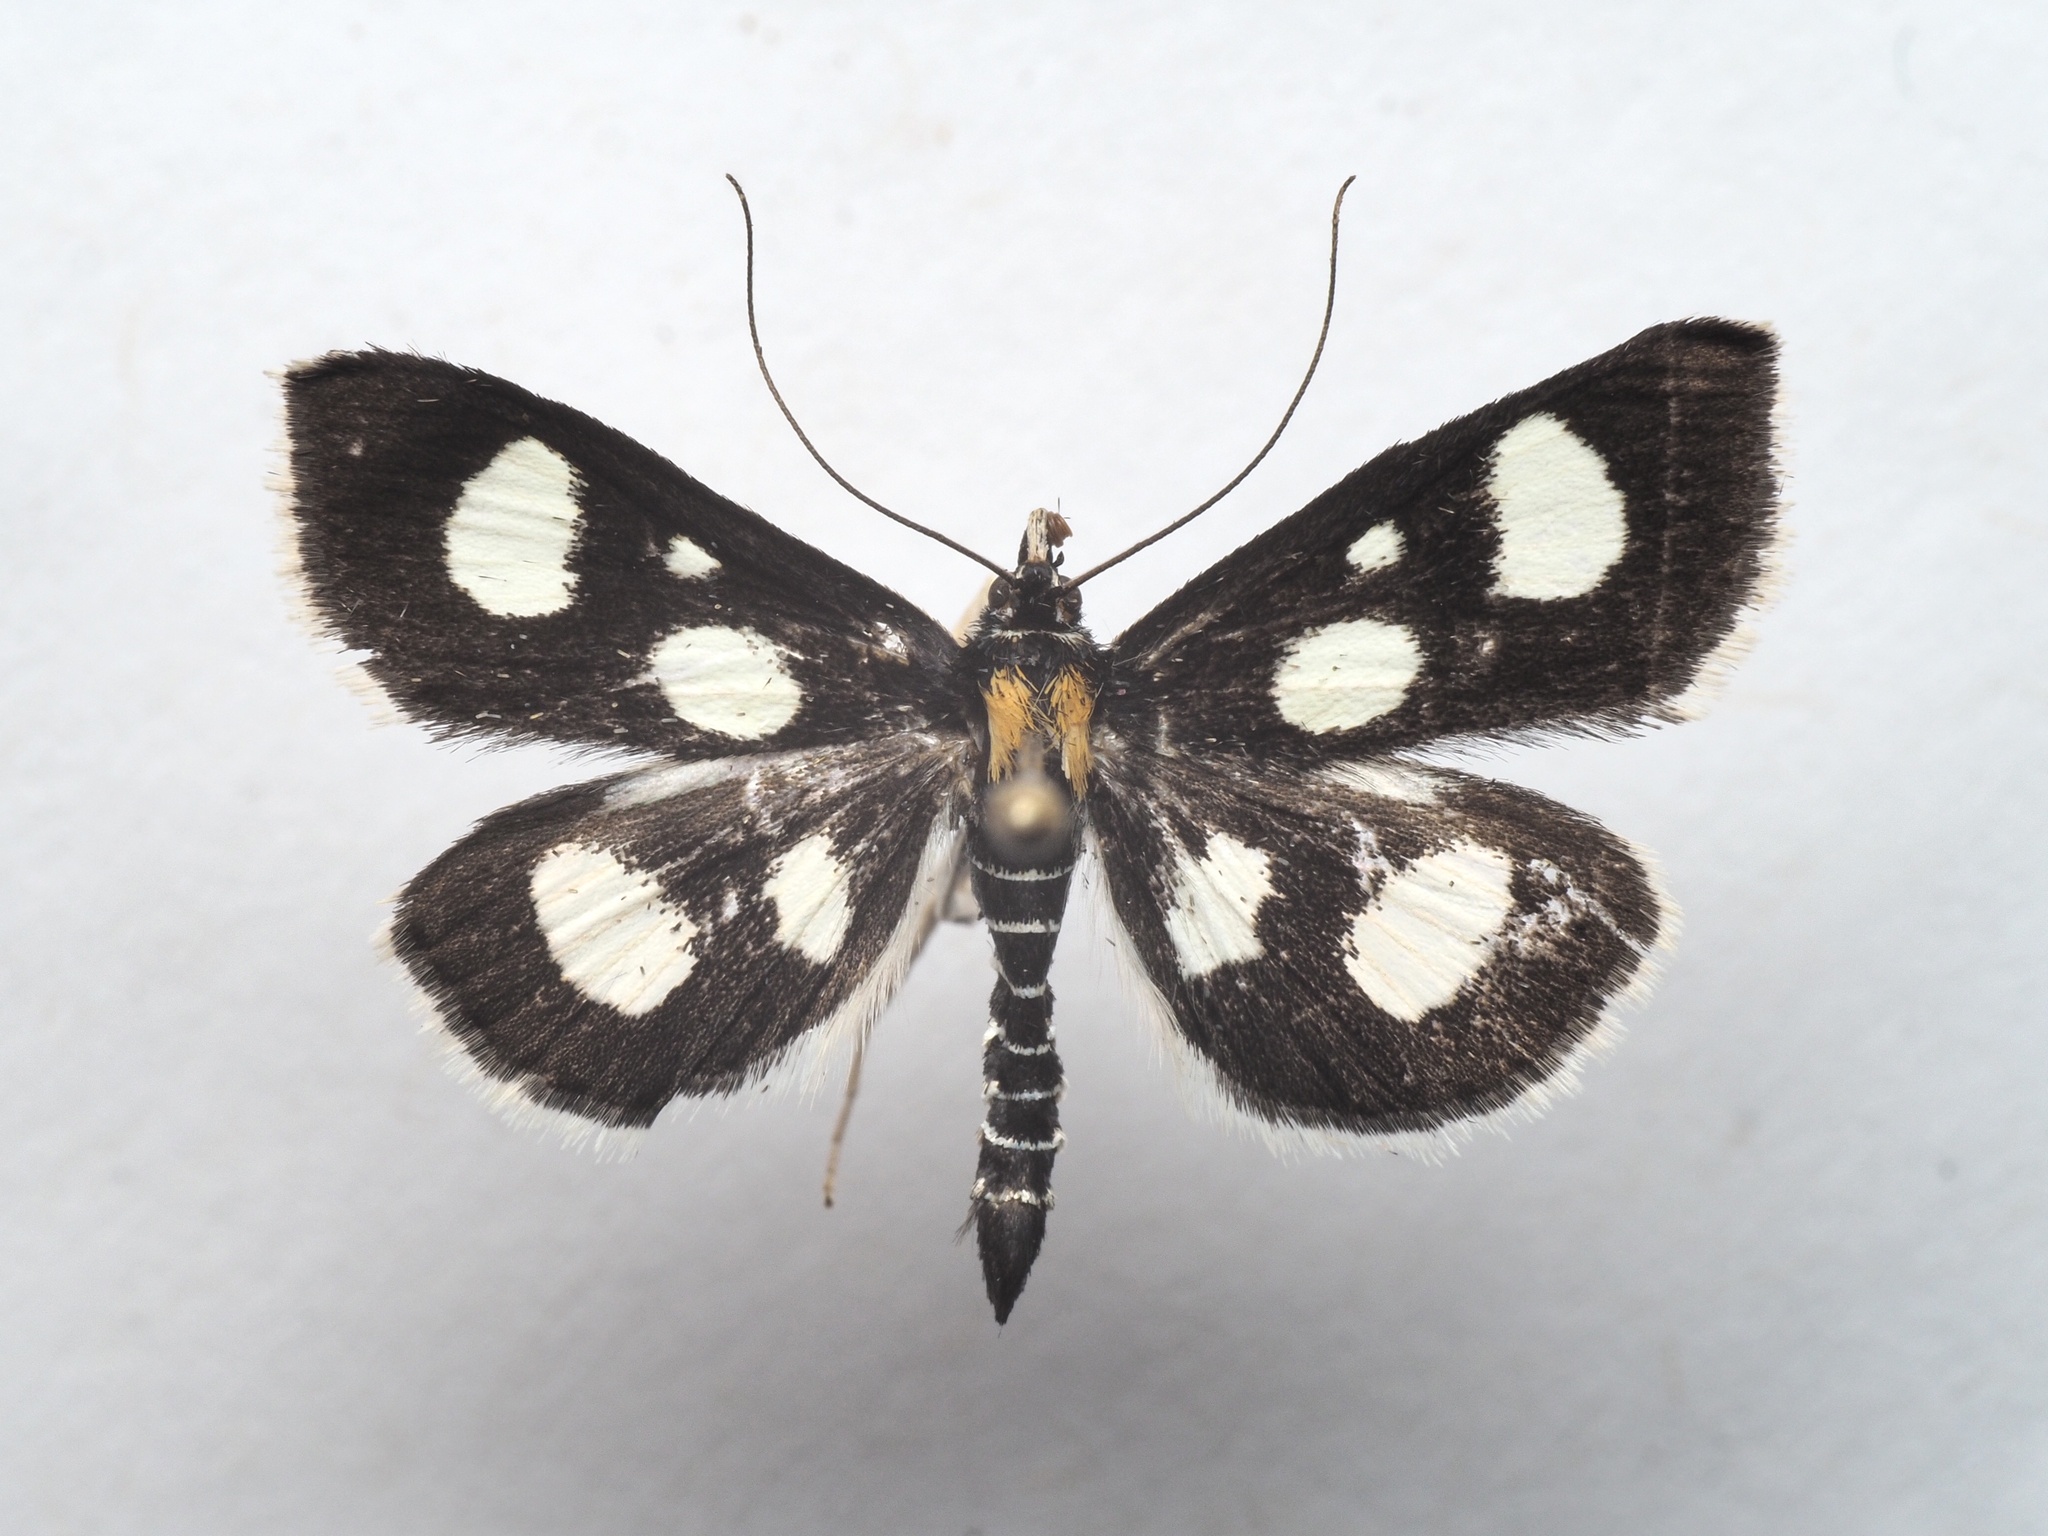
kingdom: Animalia
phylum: Arthropoda
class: Insecta
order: Lepidoptera
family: Crambidae
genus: Anania
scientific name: Anania funebris
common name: White-spotted sable moth
